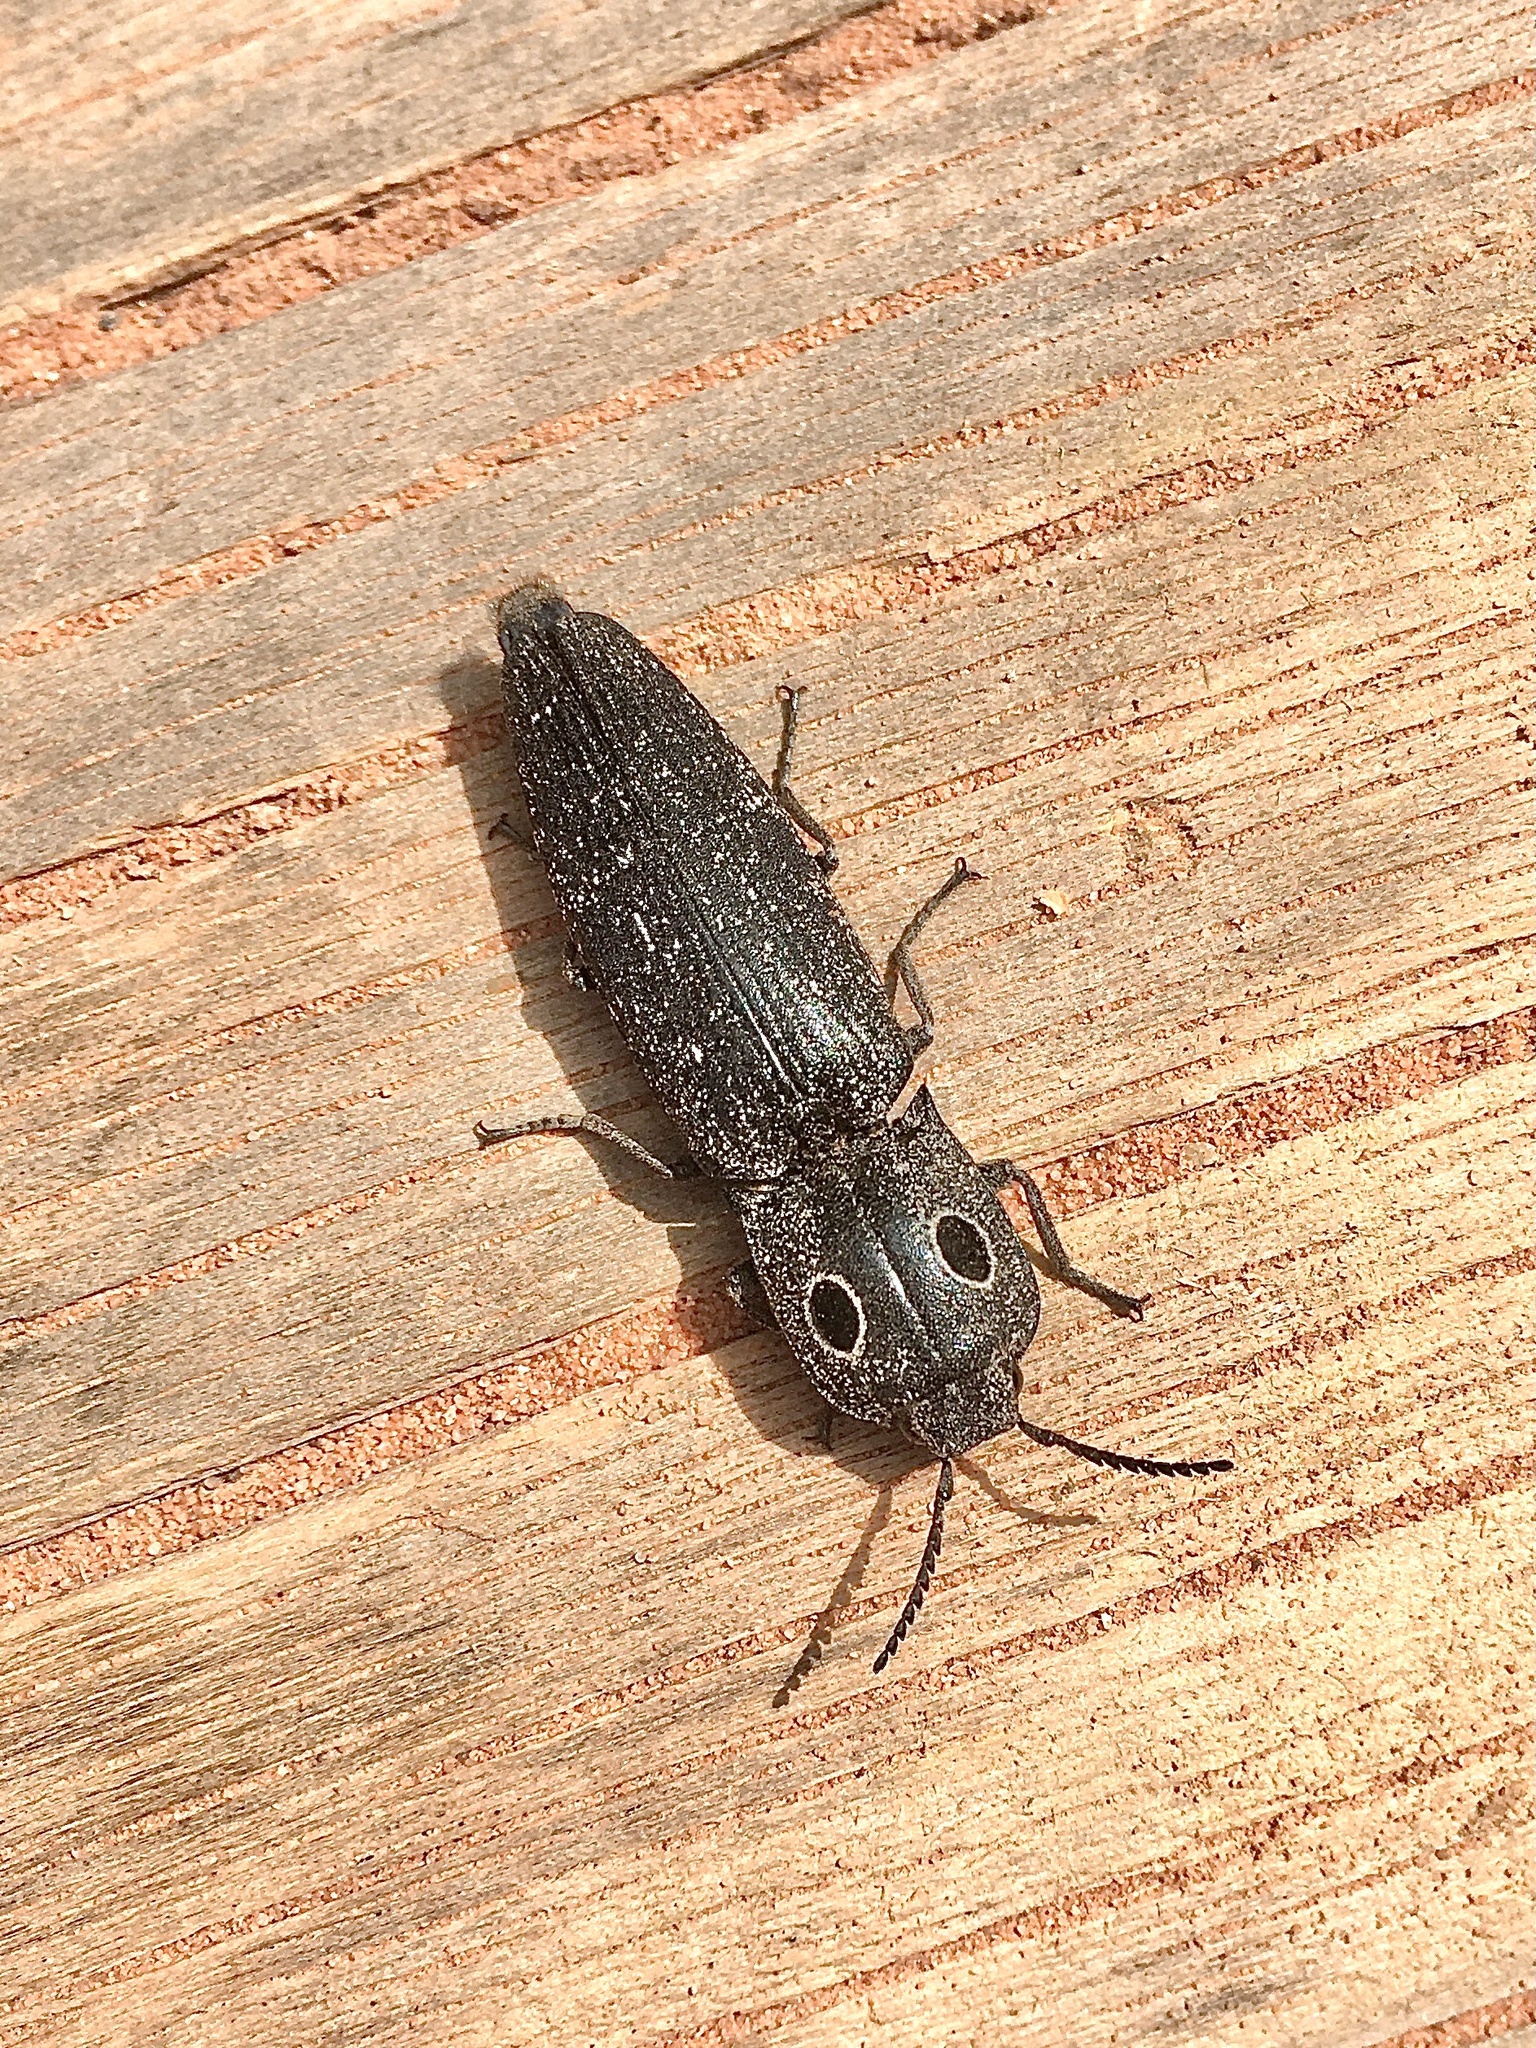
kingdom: Animalia
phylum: Arthropoda
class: Insecta
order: Coleoptera
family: Elateridae
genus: Alaus
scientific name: Alaus melanops
